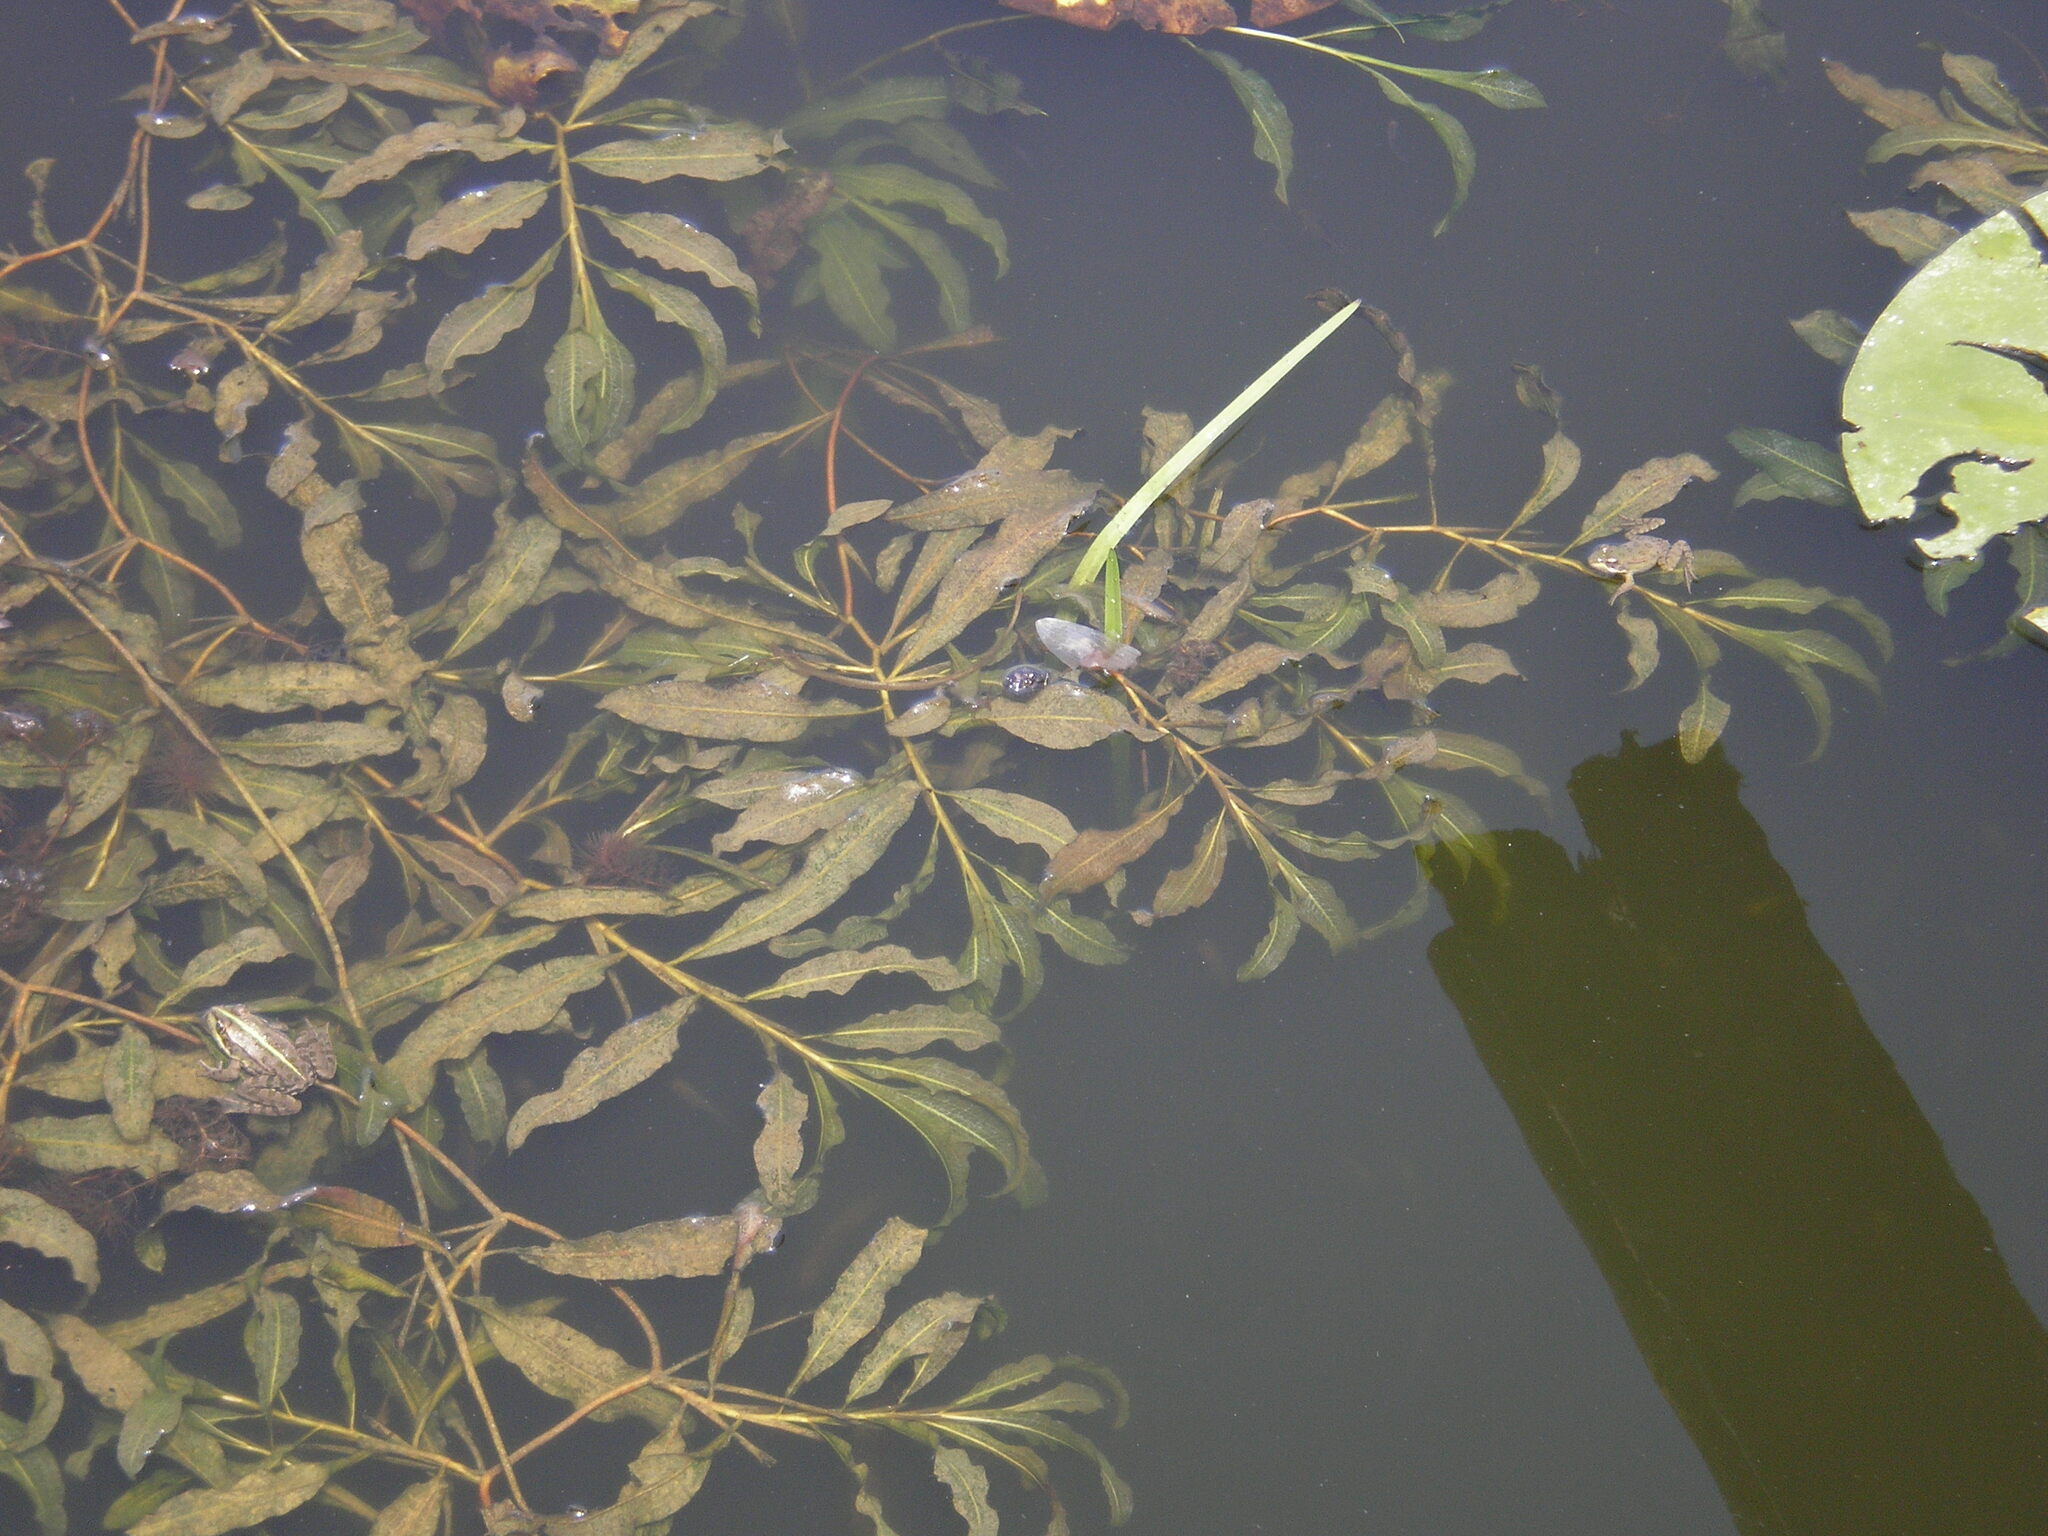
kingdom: Plantae
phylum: Tracheophyta
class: Liliopsida
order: Alismatales
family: Potamogetonaceae
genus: Potamogeton
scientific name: Potamogeton lucens
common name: Shining pondweed
